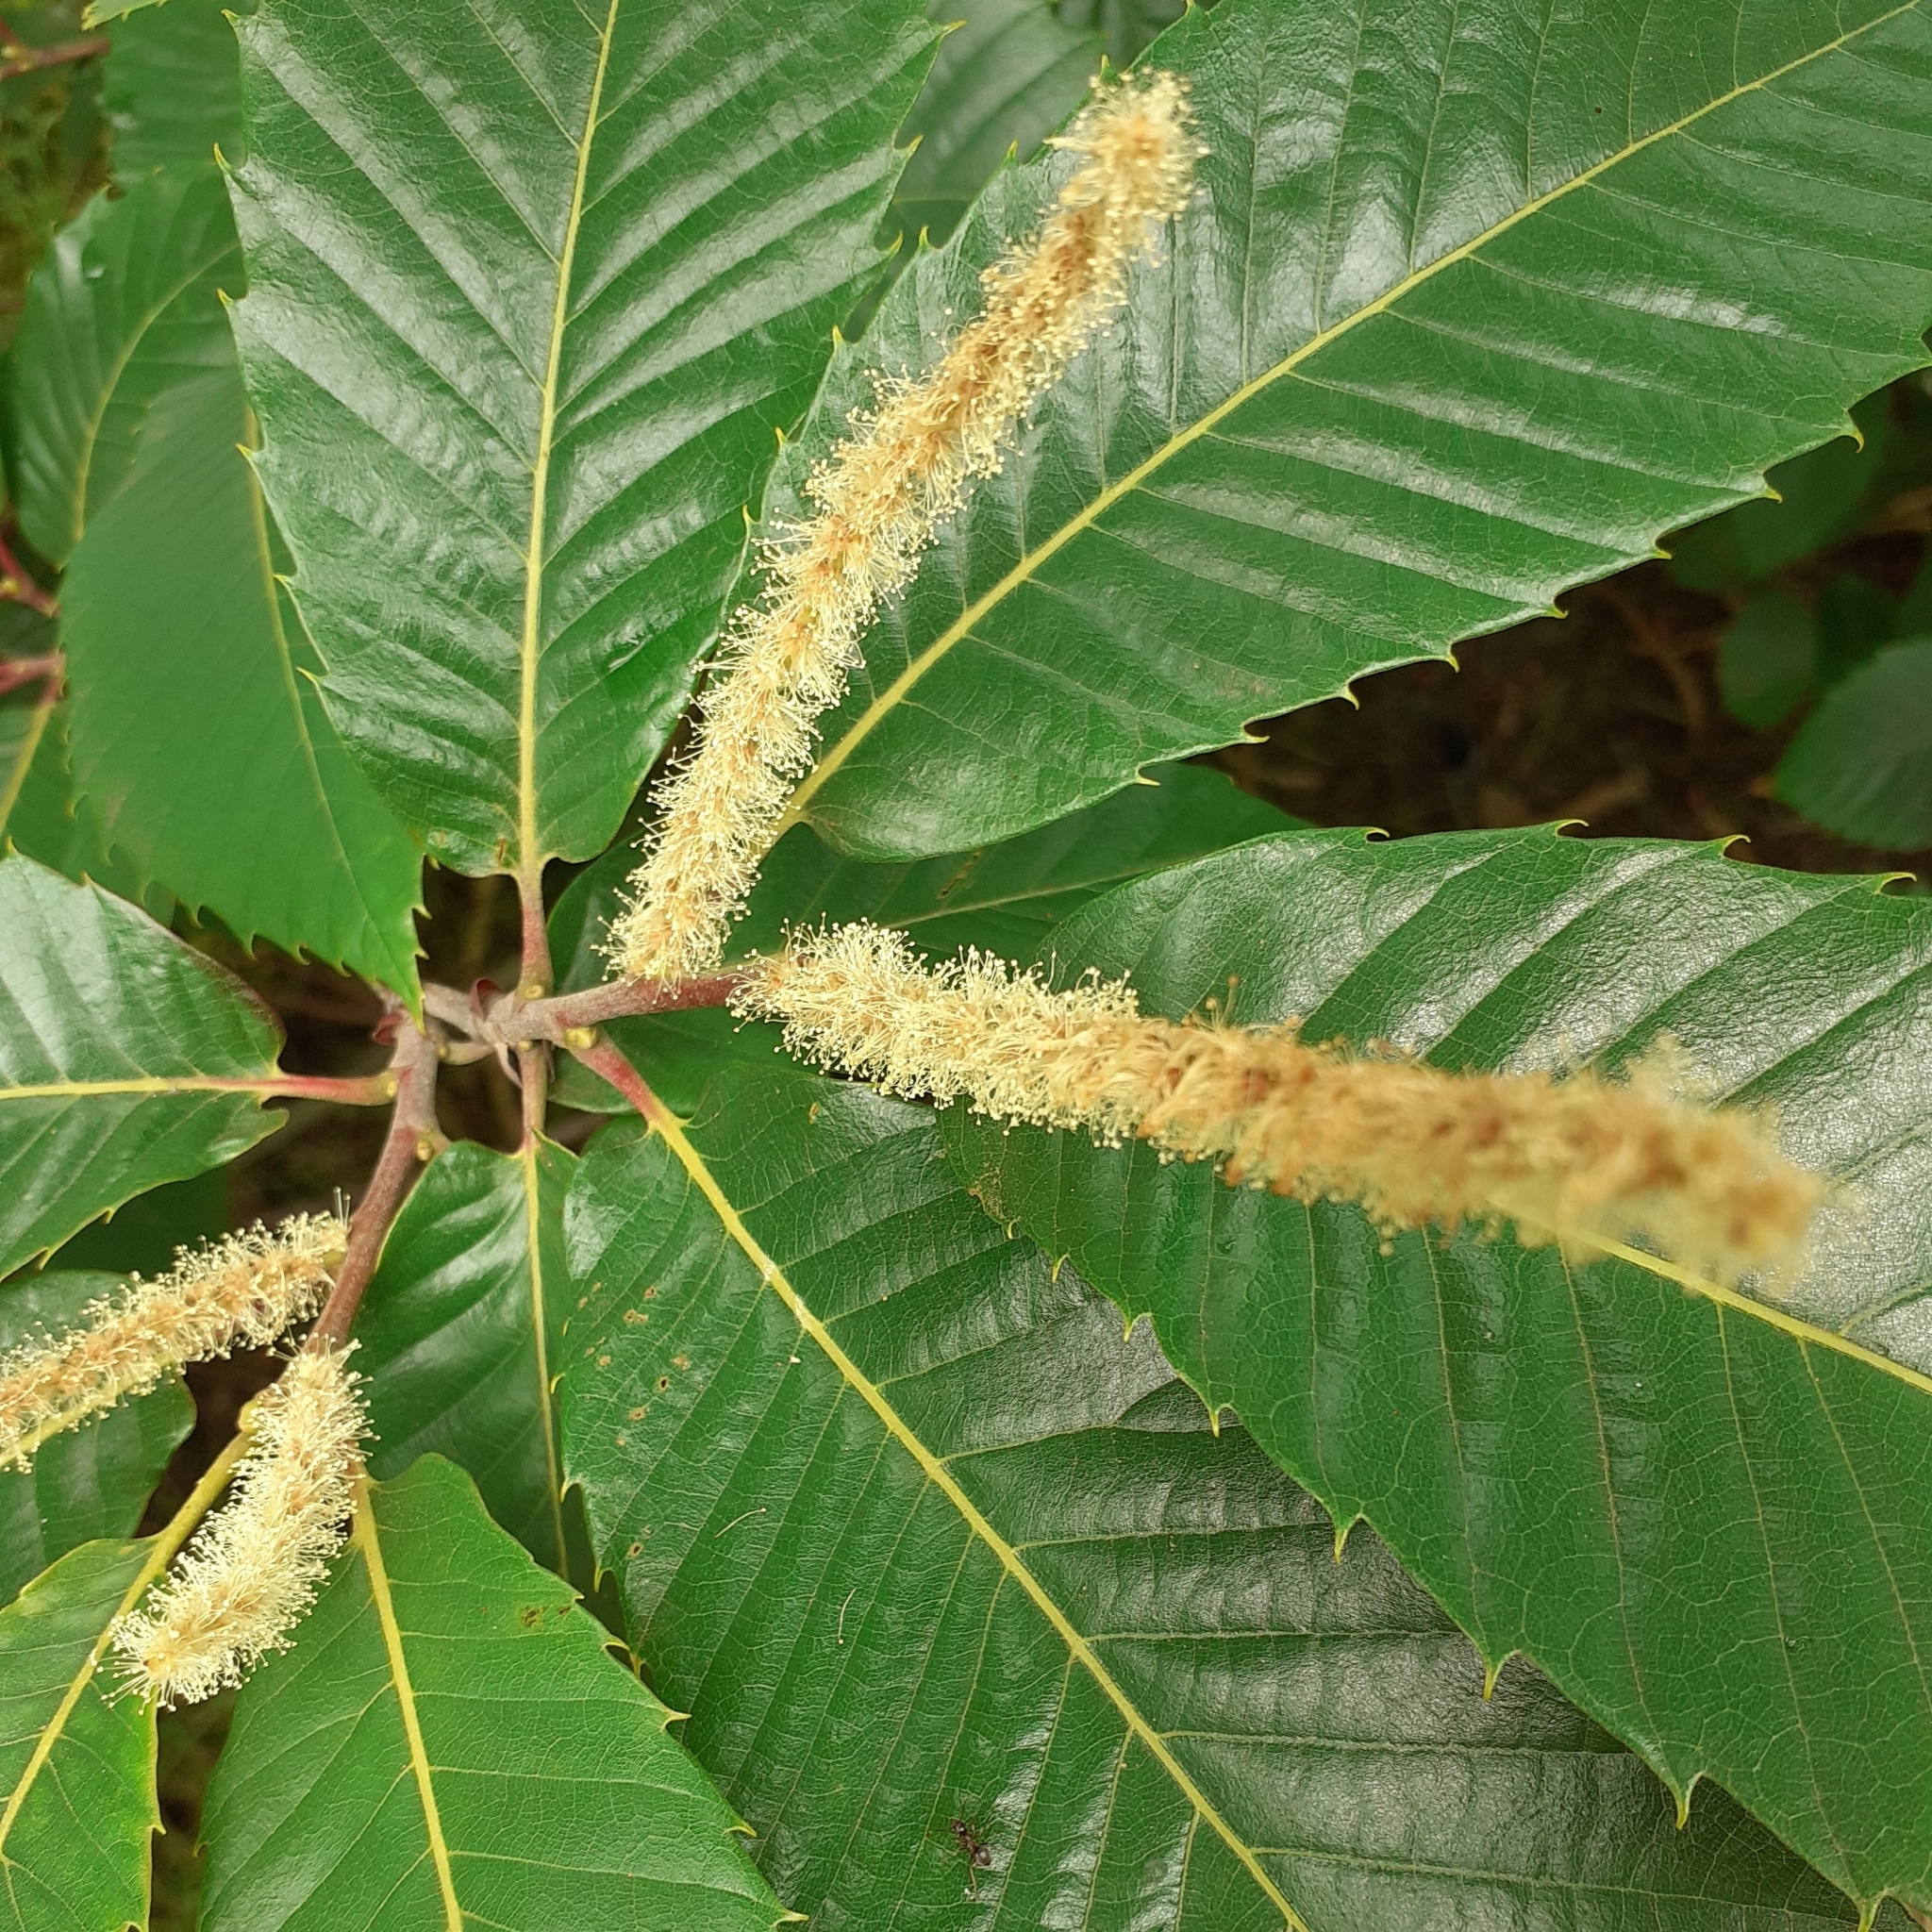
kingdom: Plantae
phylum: Tracheophyta
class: Magnoliopsida
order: Fagales
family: Fagaceae
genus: Castanea
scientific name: Castanea sativa
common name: Sweet chestnut
